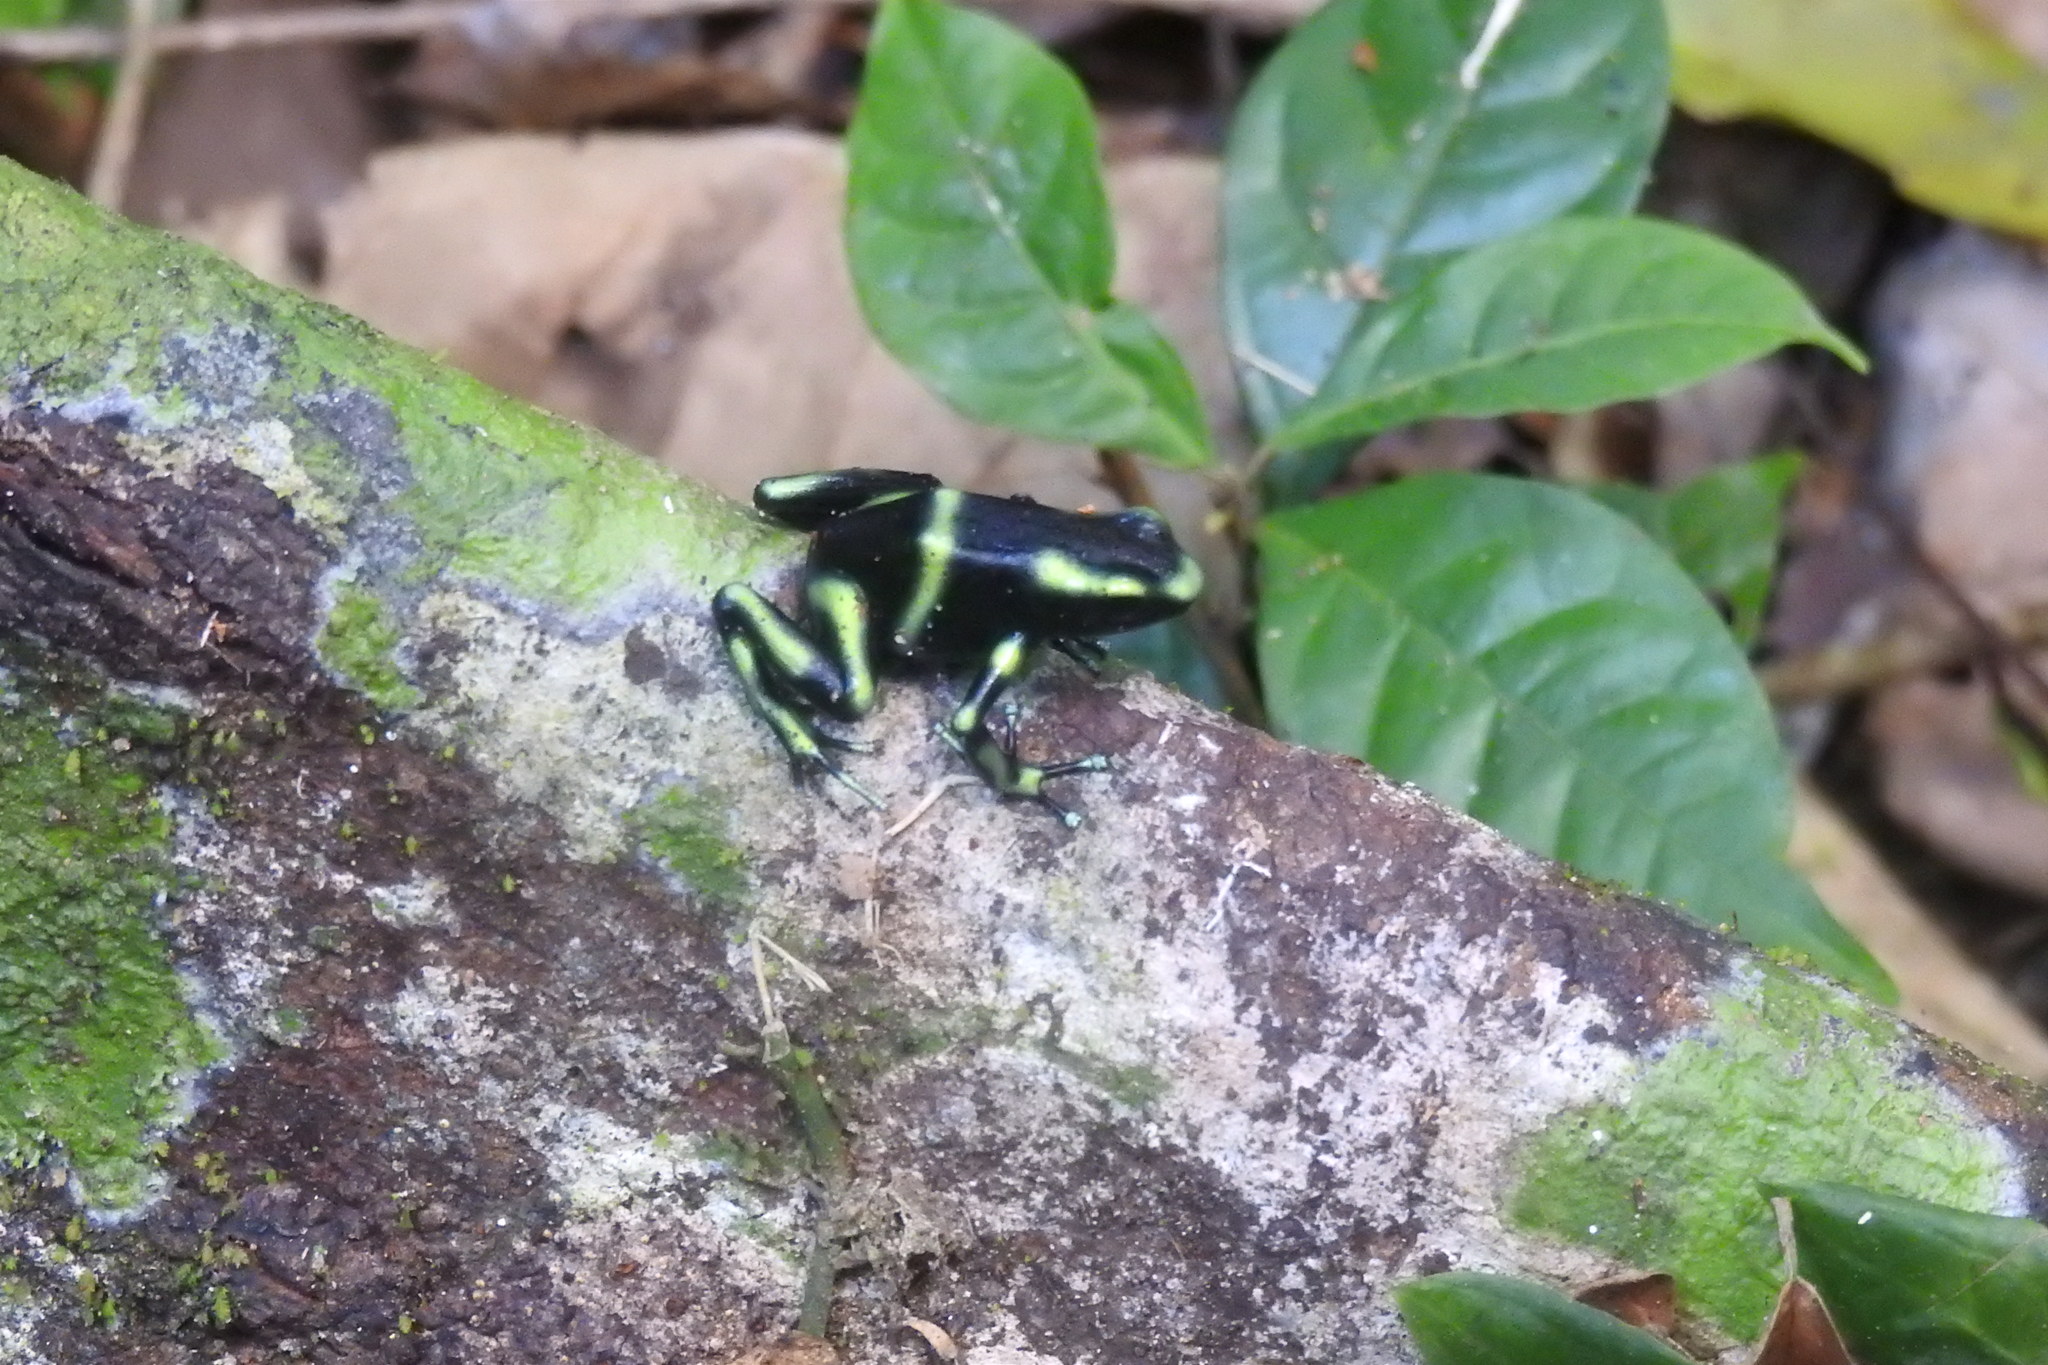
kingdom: Animalia
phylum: Chordata
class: Amphibia
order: Anura
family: Dendrobatidae
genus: Dendrobates
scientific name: Dendrobates auratus
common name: Green and black poison dart frog
